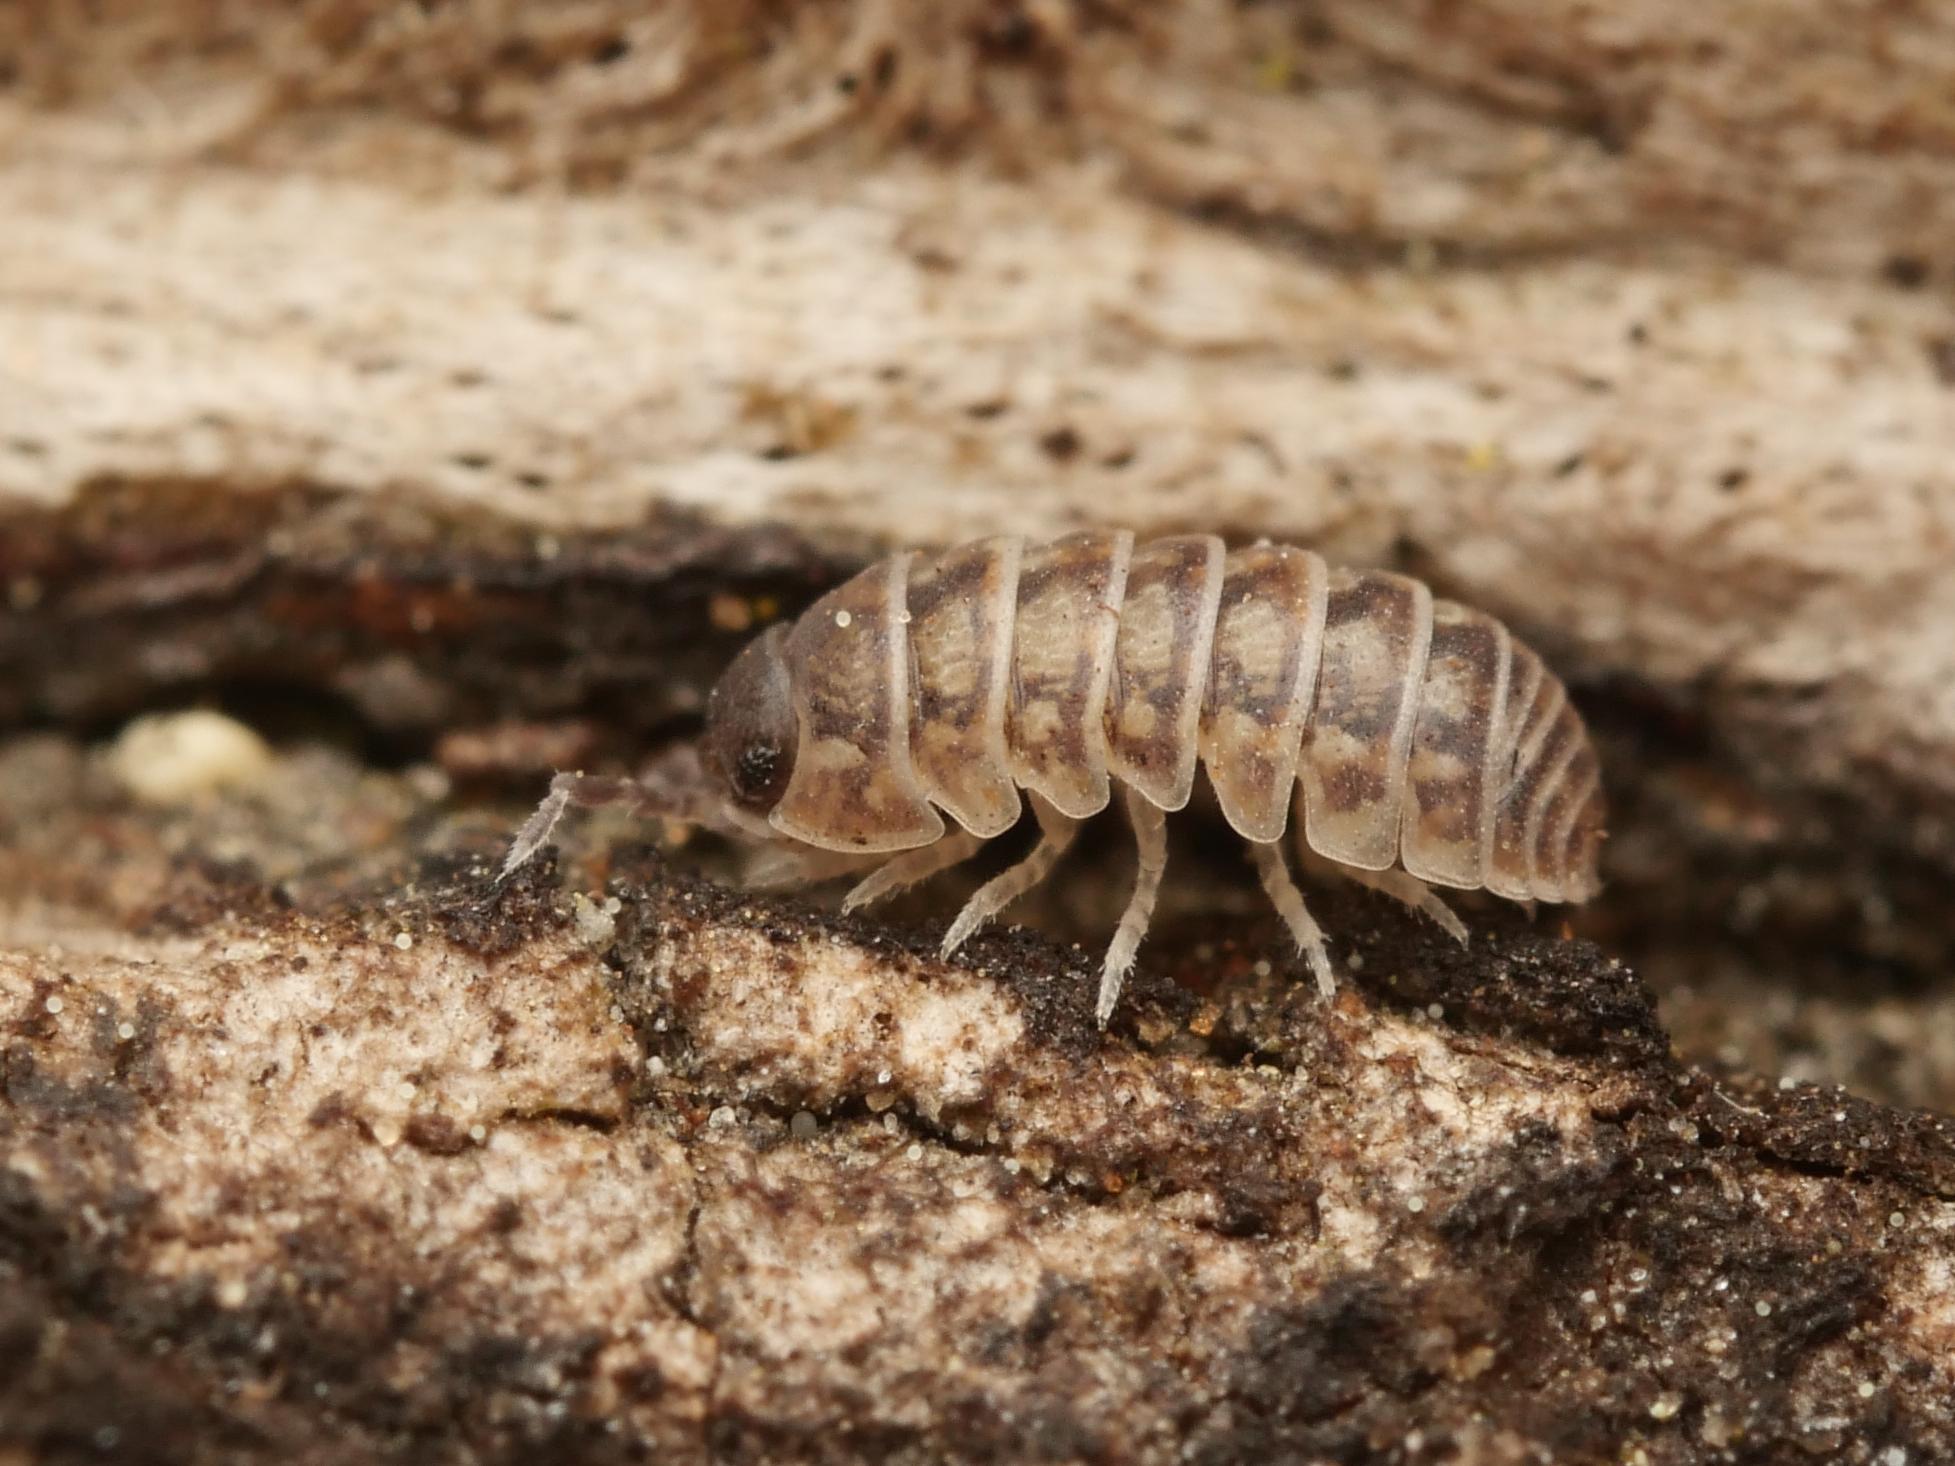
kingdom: Animalia
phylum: Arthropoda
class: Malacostraca
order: Isopoda
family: Armadillidiidae
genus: Armadillidium
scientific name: Armadillidium vulgare
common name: Common pill woodlouse
